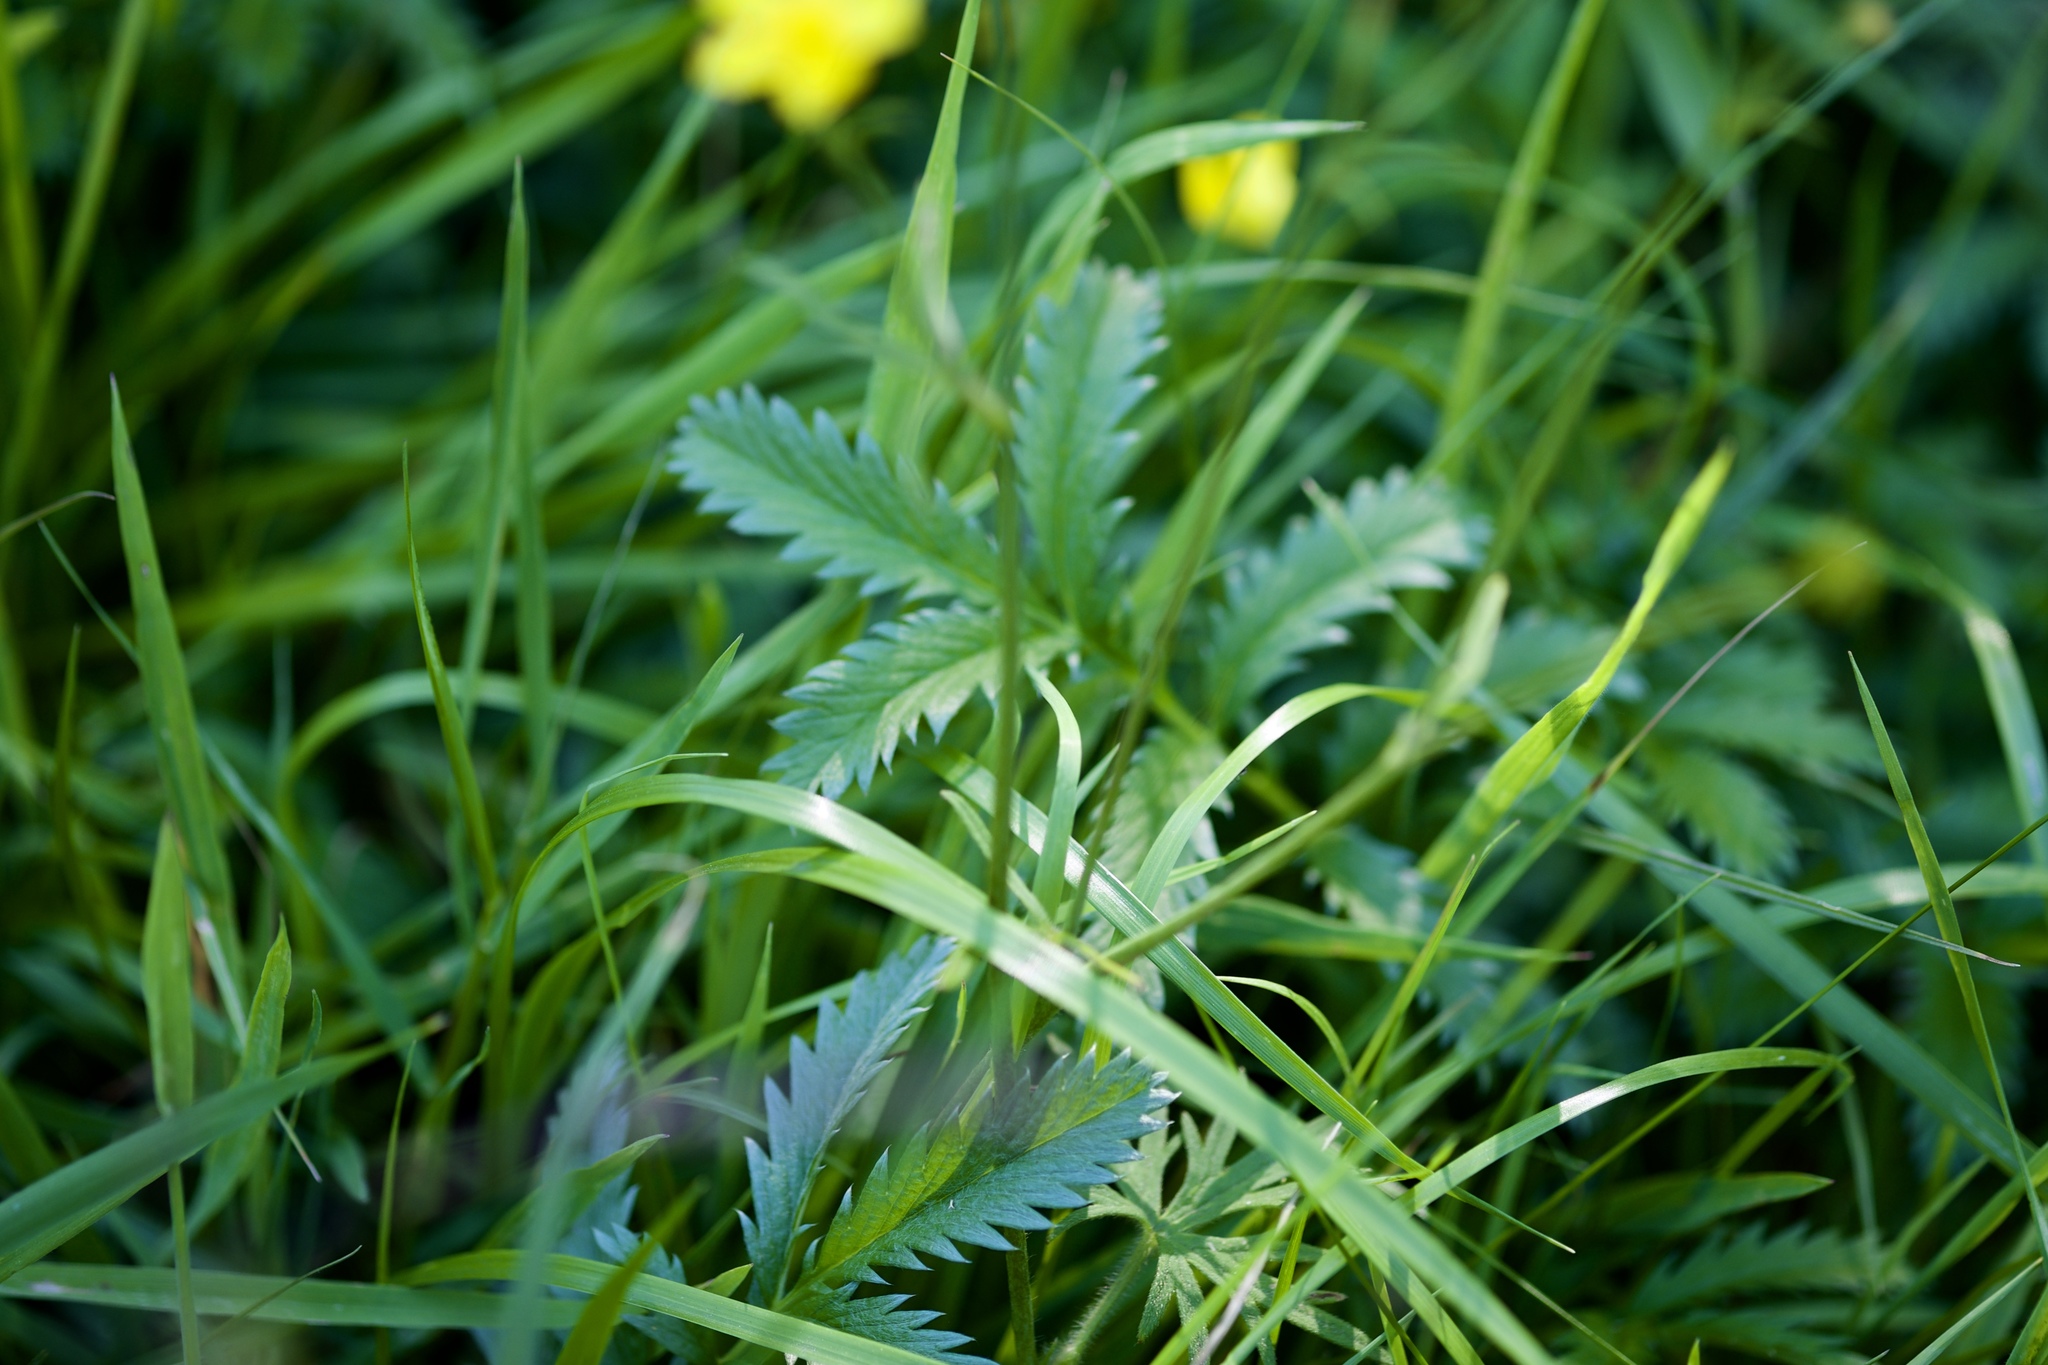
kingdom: Plantae
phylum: Tracheophyta
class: Magnoliopsida
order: Rosales
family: Rosaceae
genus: Argentina
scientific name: Argentina anserina
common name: Common silverweed
